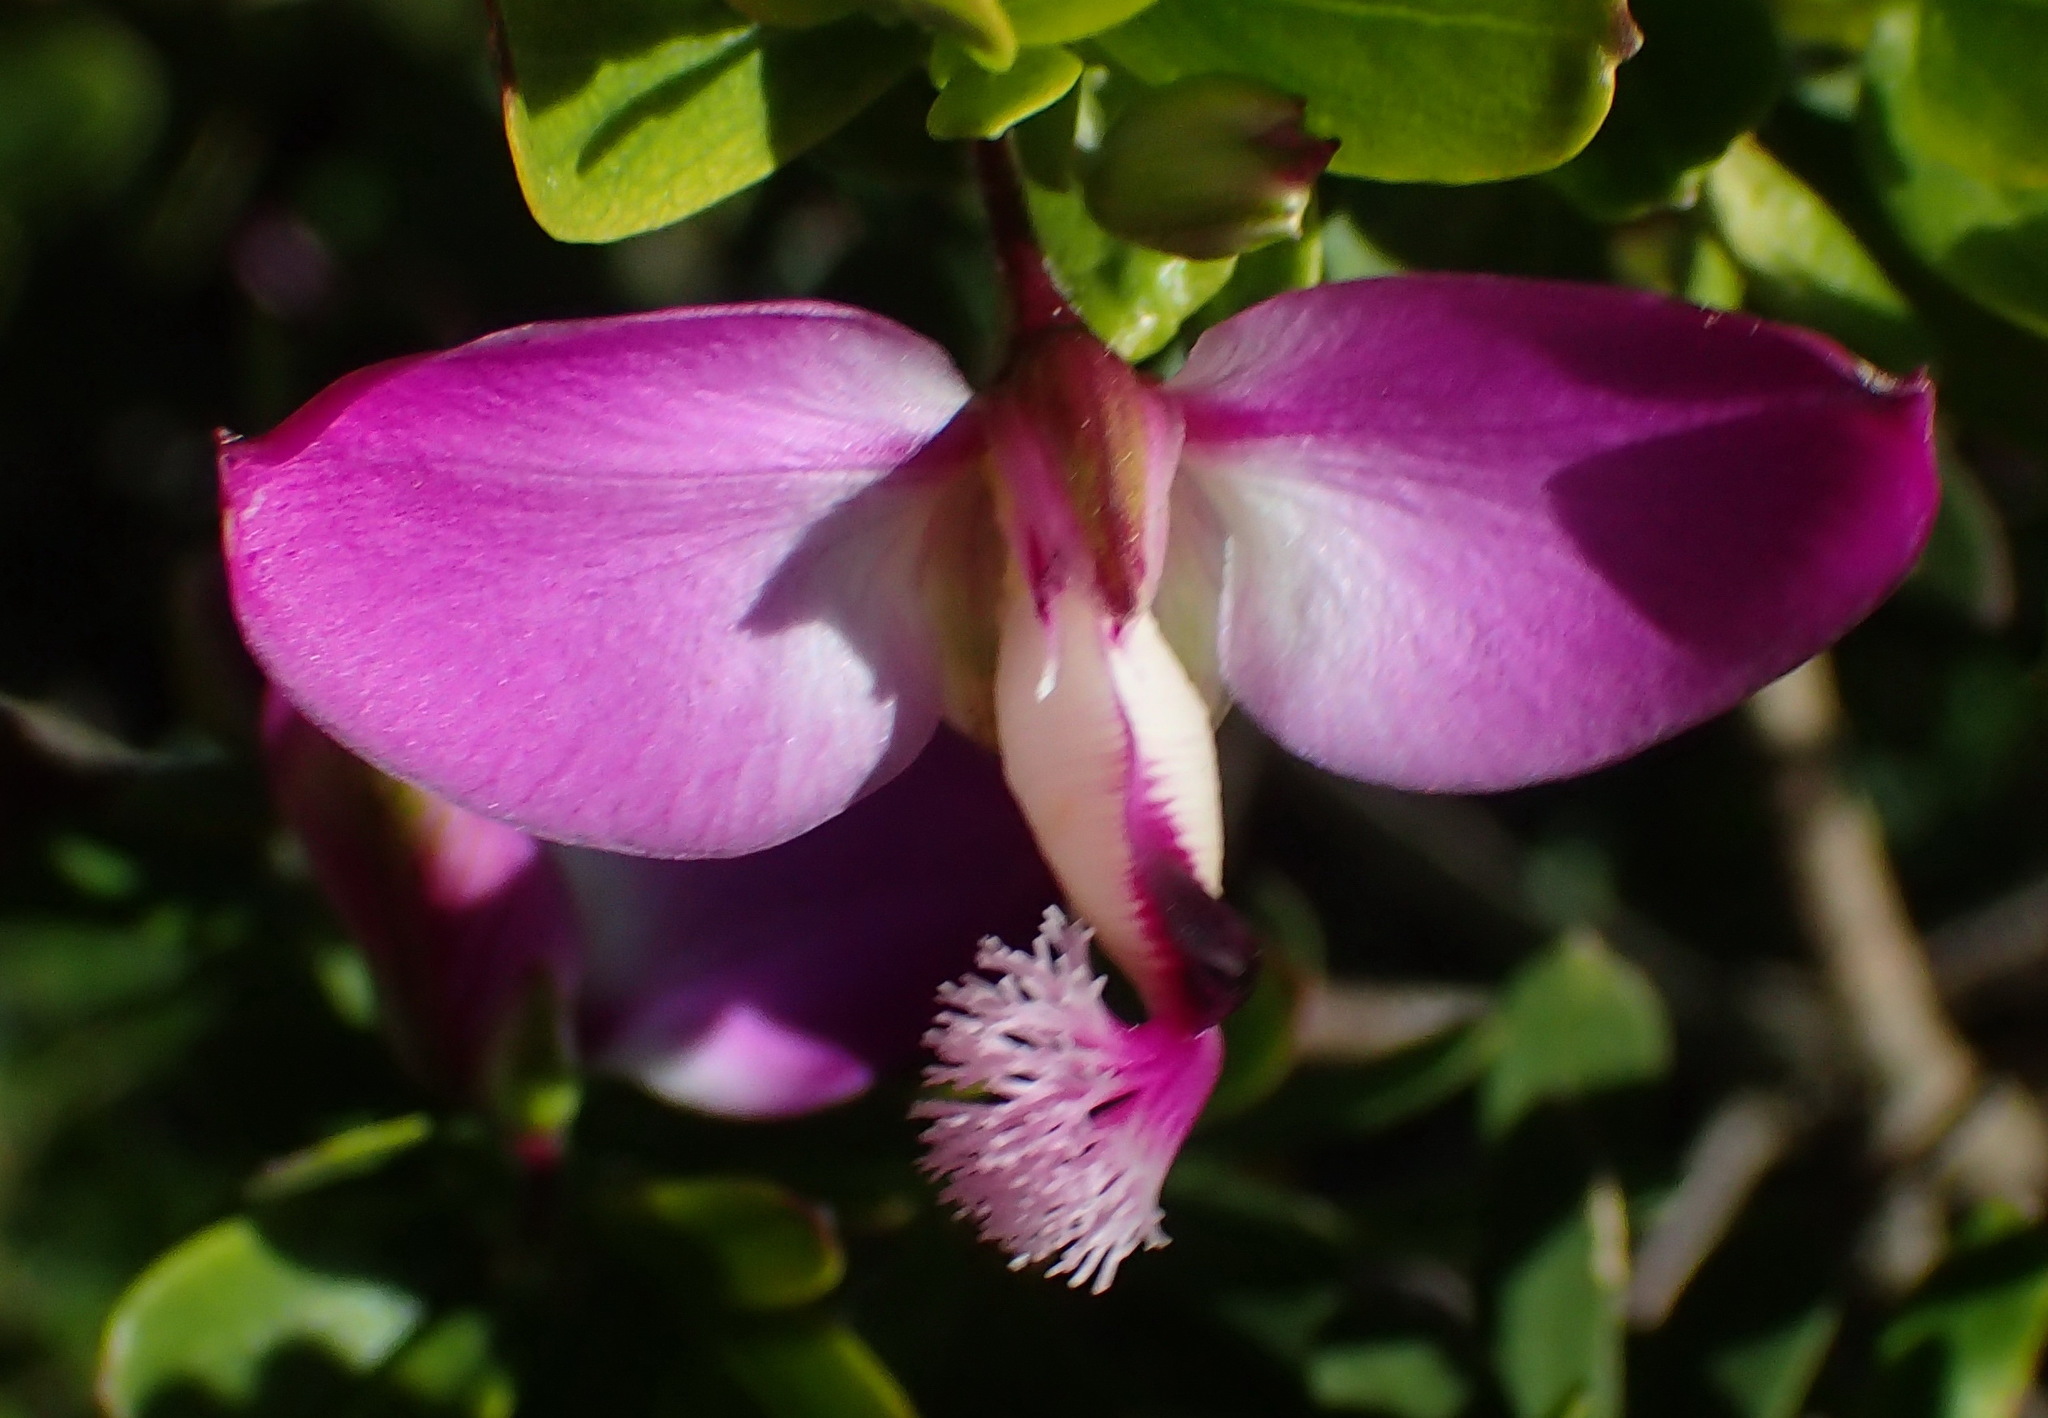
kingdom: Plantae
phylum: Tracheophyta
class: Magnoliopsida
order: Fabales
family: Polygalaceae
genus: Polygala
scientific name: Polygala myrtifolia
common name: Myrtle-leaf milkwort
